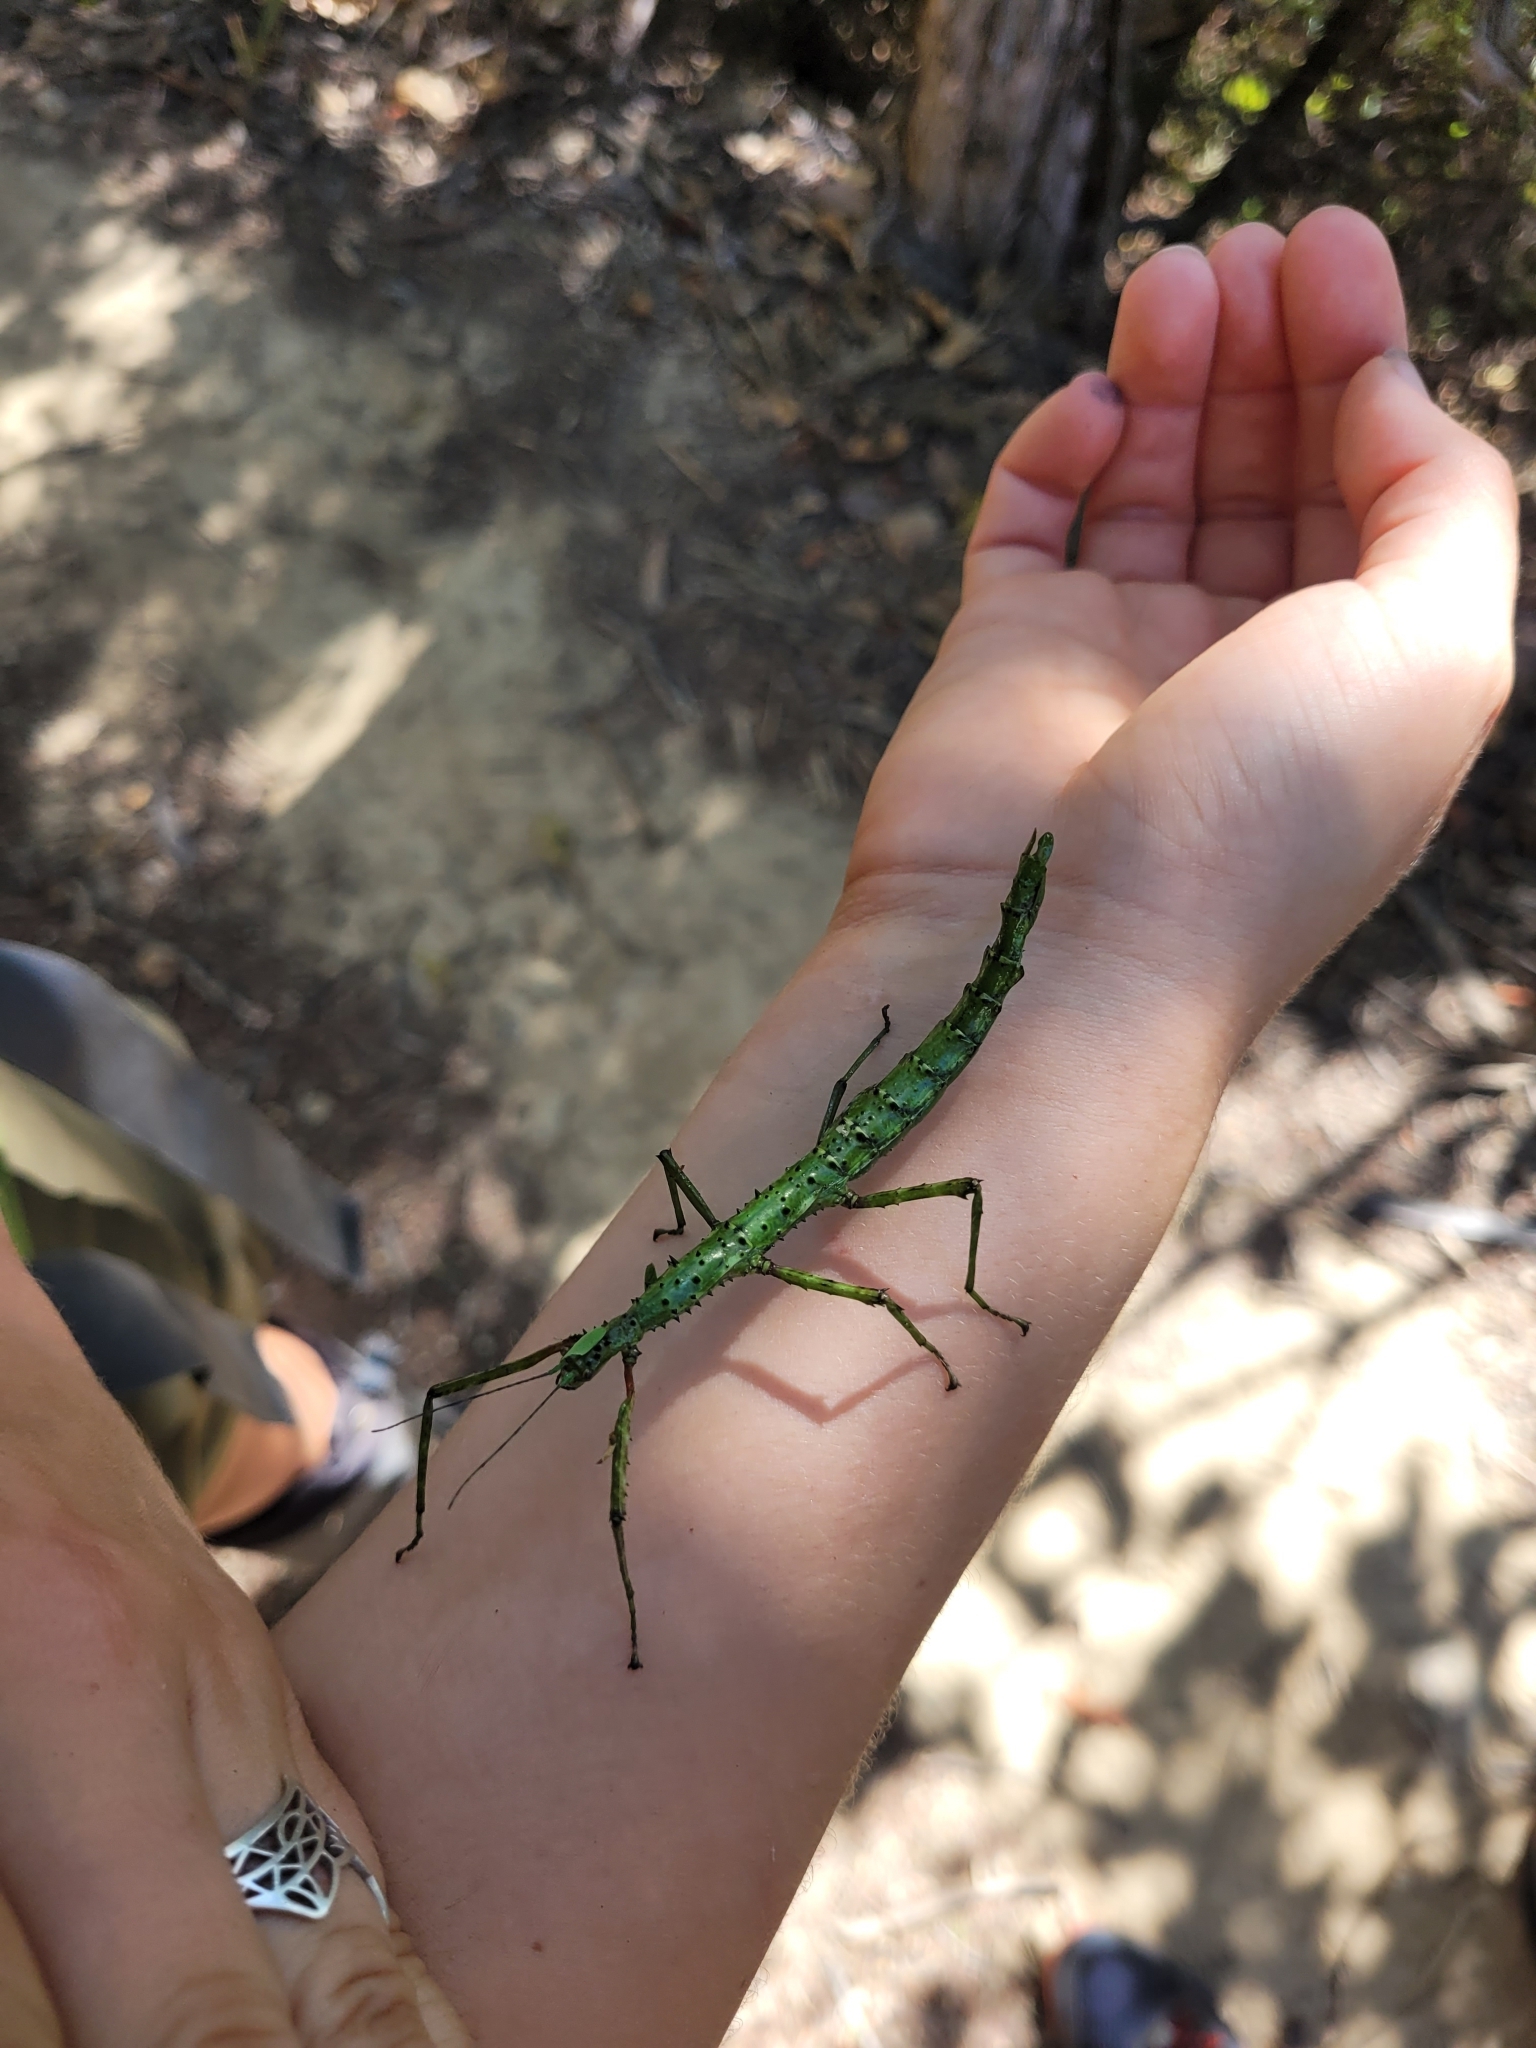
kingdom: Animalia
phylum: Arthropoda
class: Insecta
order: Phasmida
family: Phasmatidae
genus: Acanthoxyla
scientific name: Acanthoxyla prasina
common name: Black-spined stick insect
